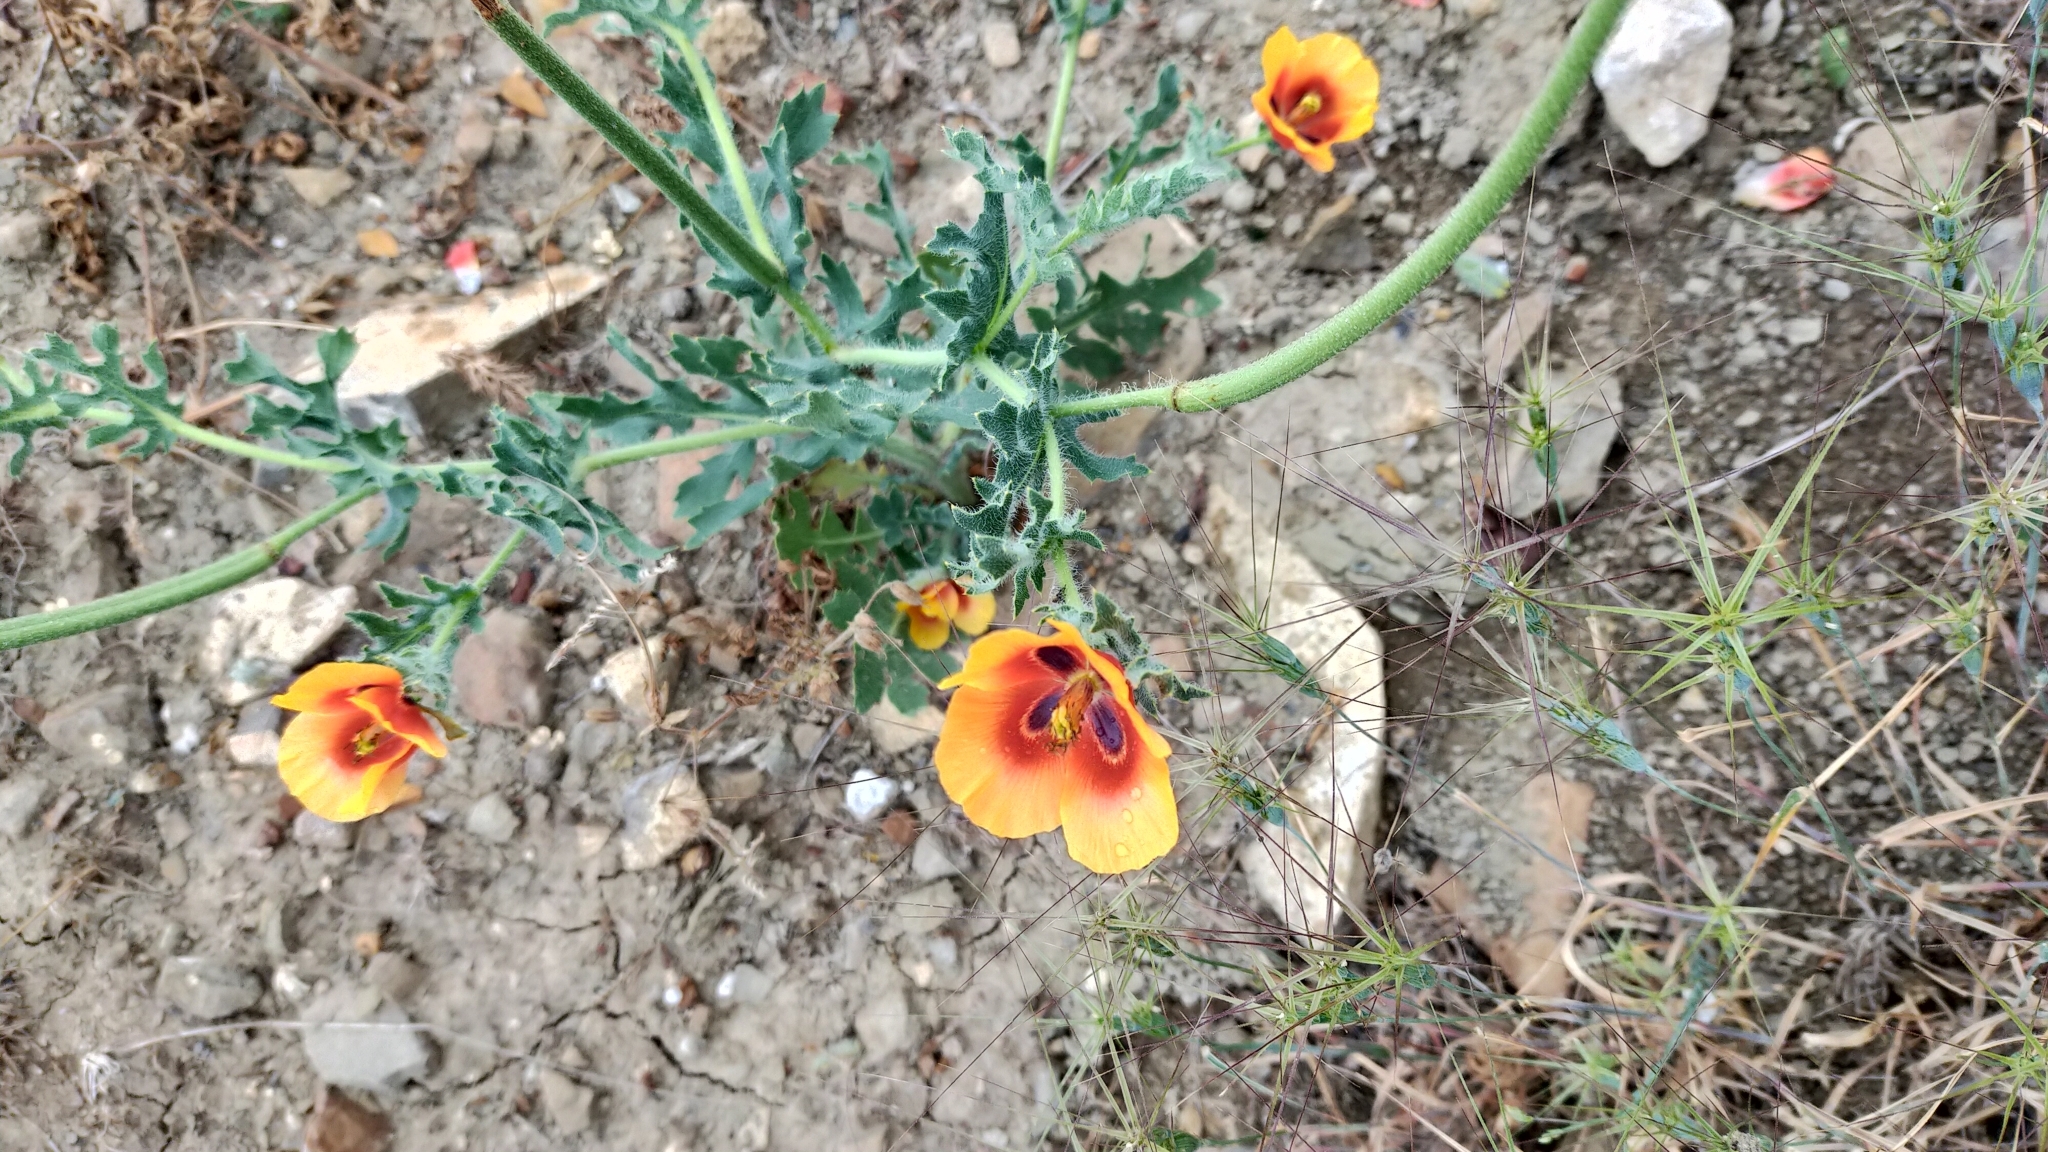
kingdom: Plantae
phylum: Tracheophyta
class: Magnoliopsida
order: Ranunculales
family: Papaveraceae
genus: Glaucium
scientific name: Glaucium corniculatum
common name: Red horned-poppy
